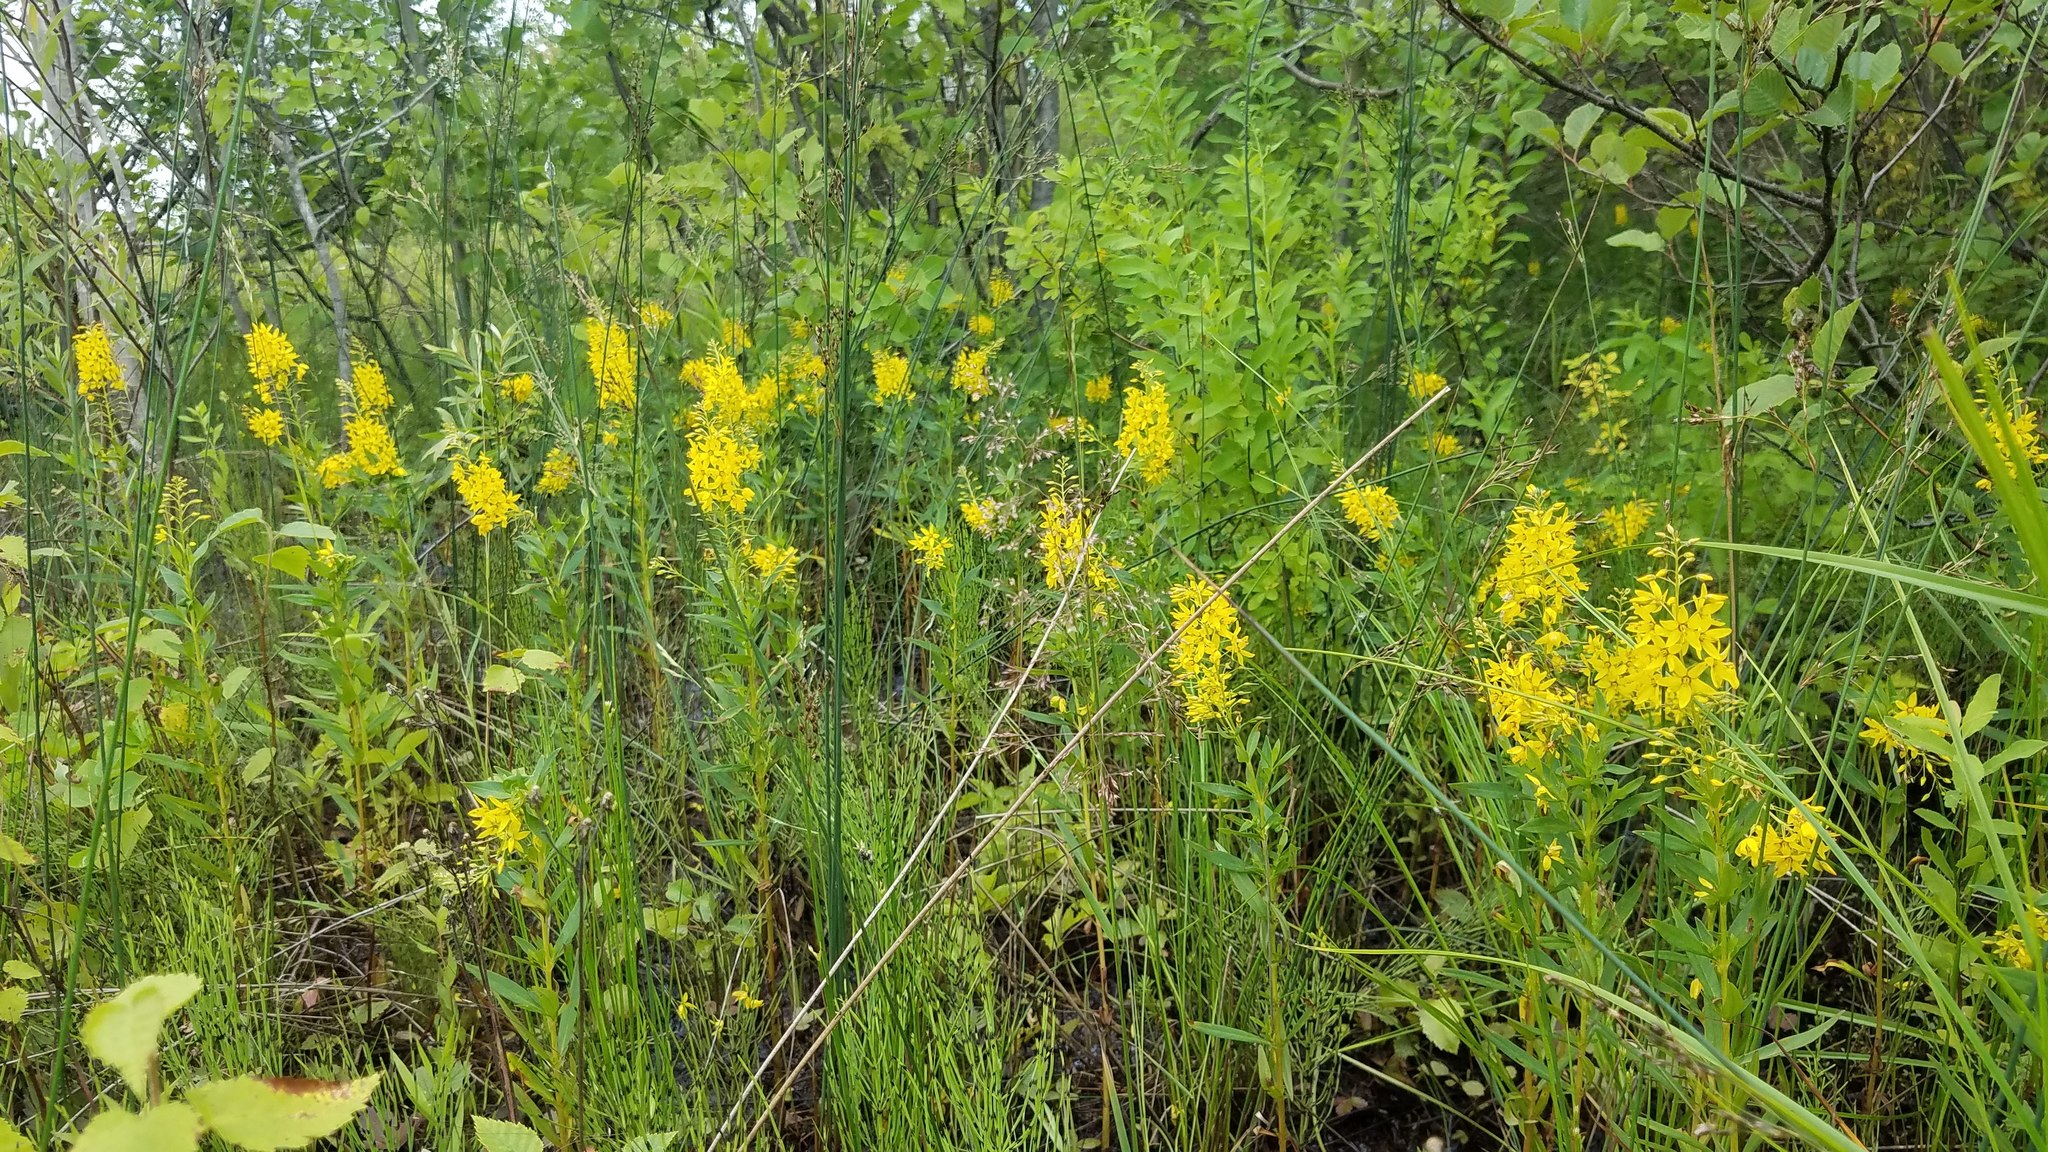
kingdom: Plantae
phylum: Tracheophyta
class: Magnoliopsida
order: Ericales
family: Primulaceae
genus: Lysimachia
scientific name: Lysimachia terrestris
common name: Lake loosestrife
